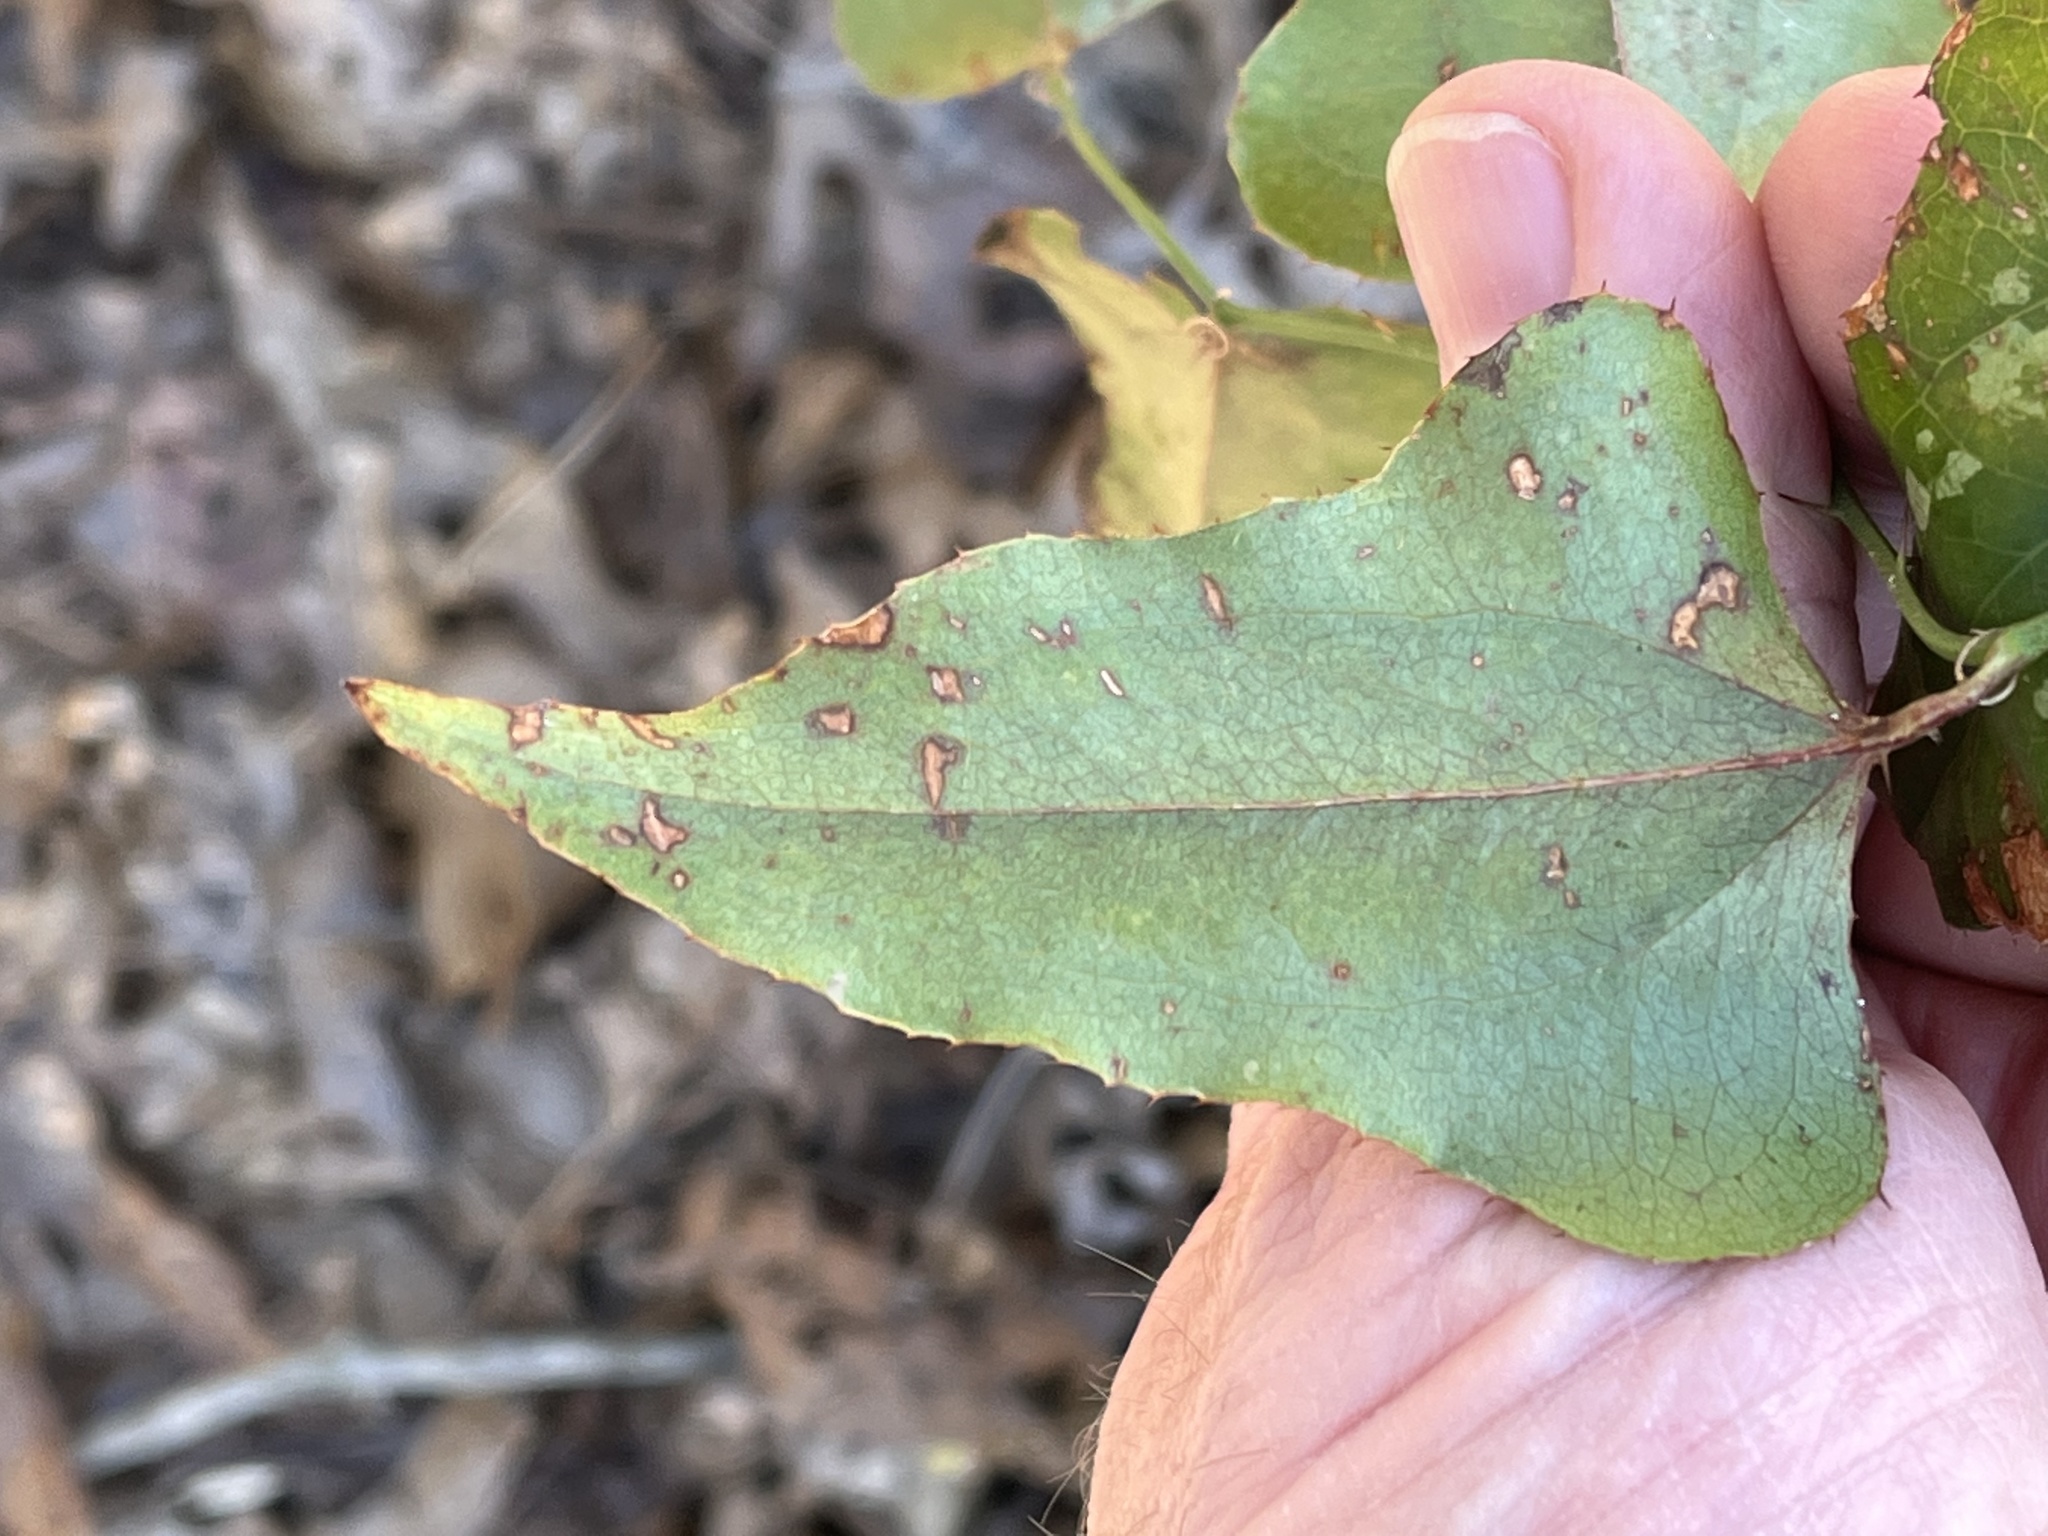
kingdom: Plantae
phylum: Tracheophyta
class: Liliopsida
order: Liliales
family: Smilacaceae
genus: Smilax
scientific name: Smilax bona-nox
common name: Catbrier
